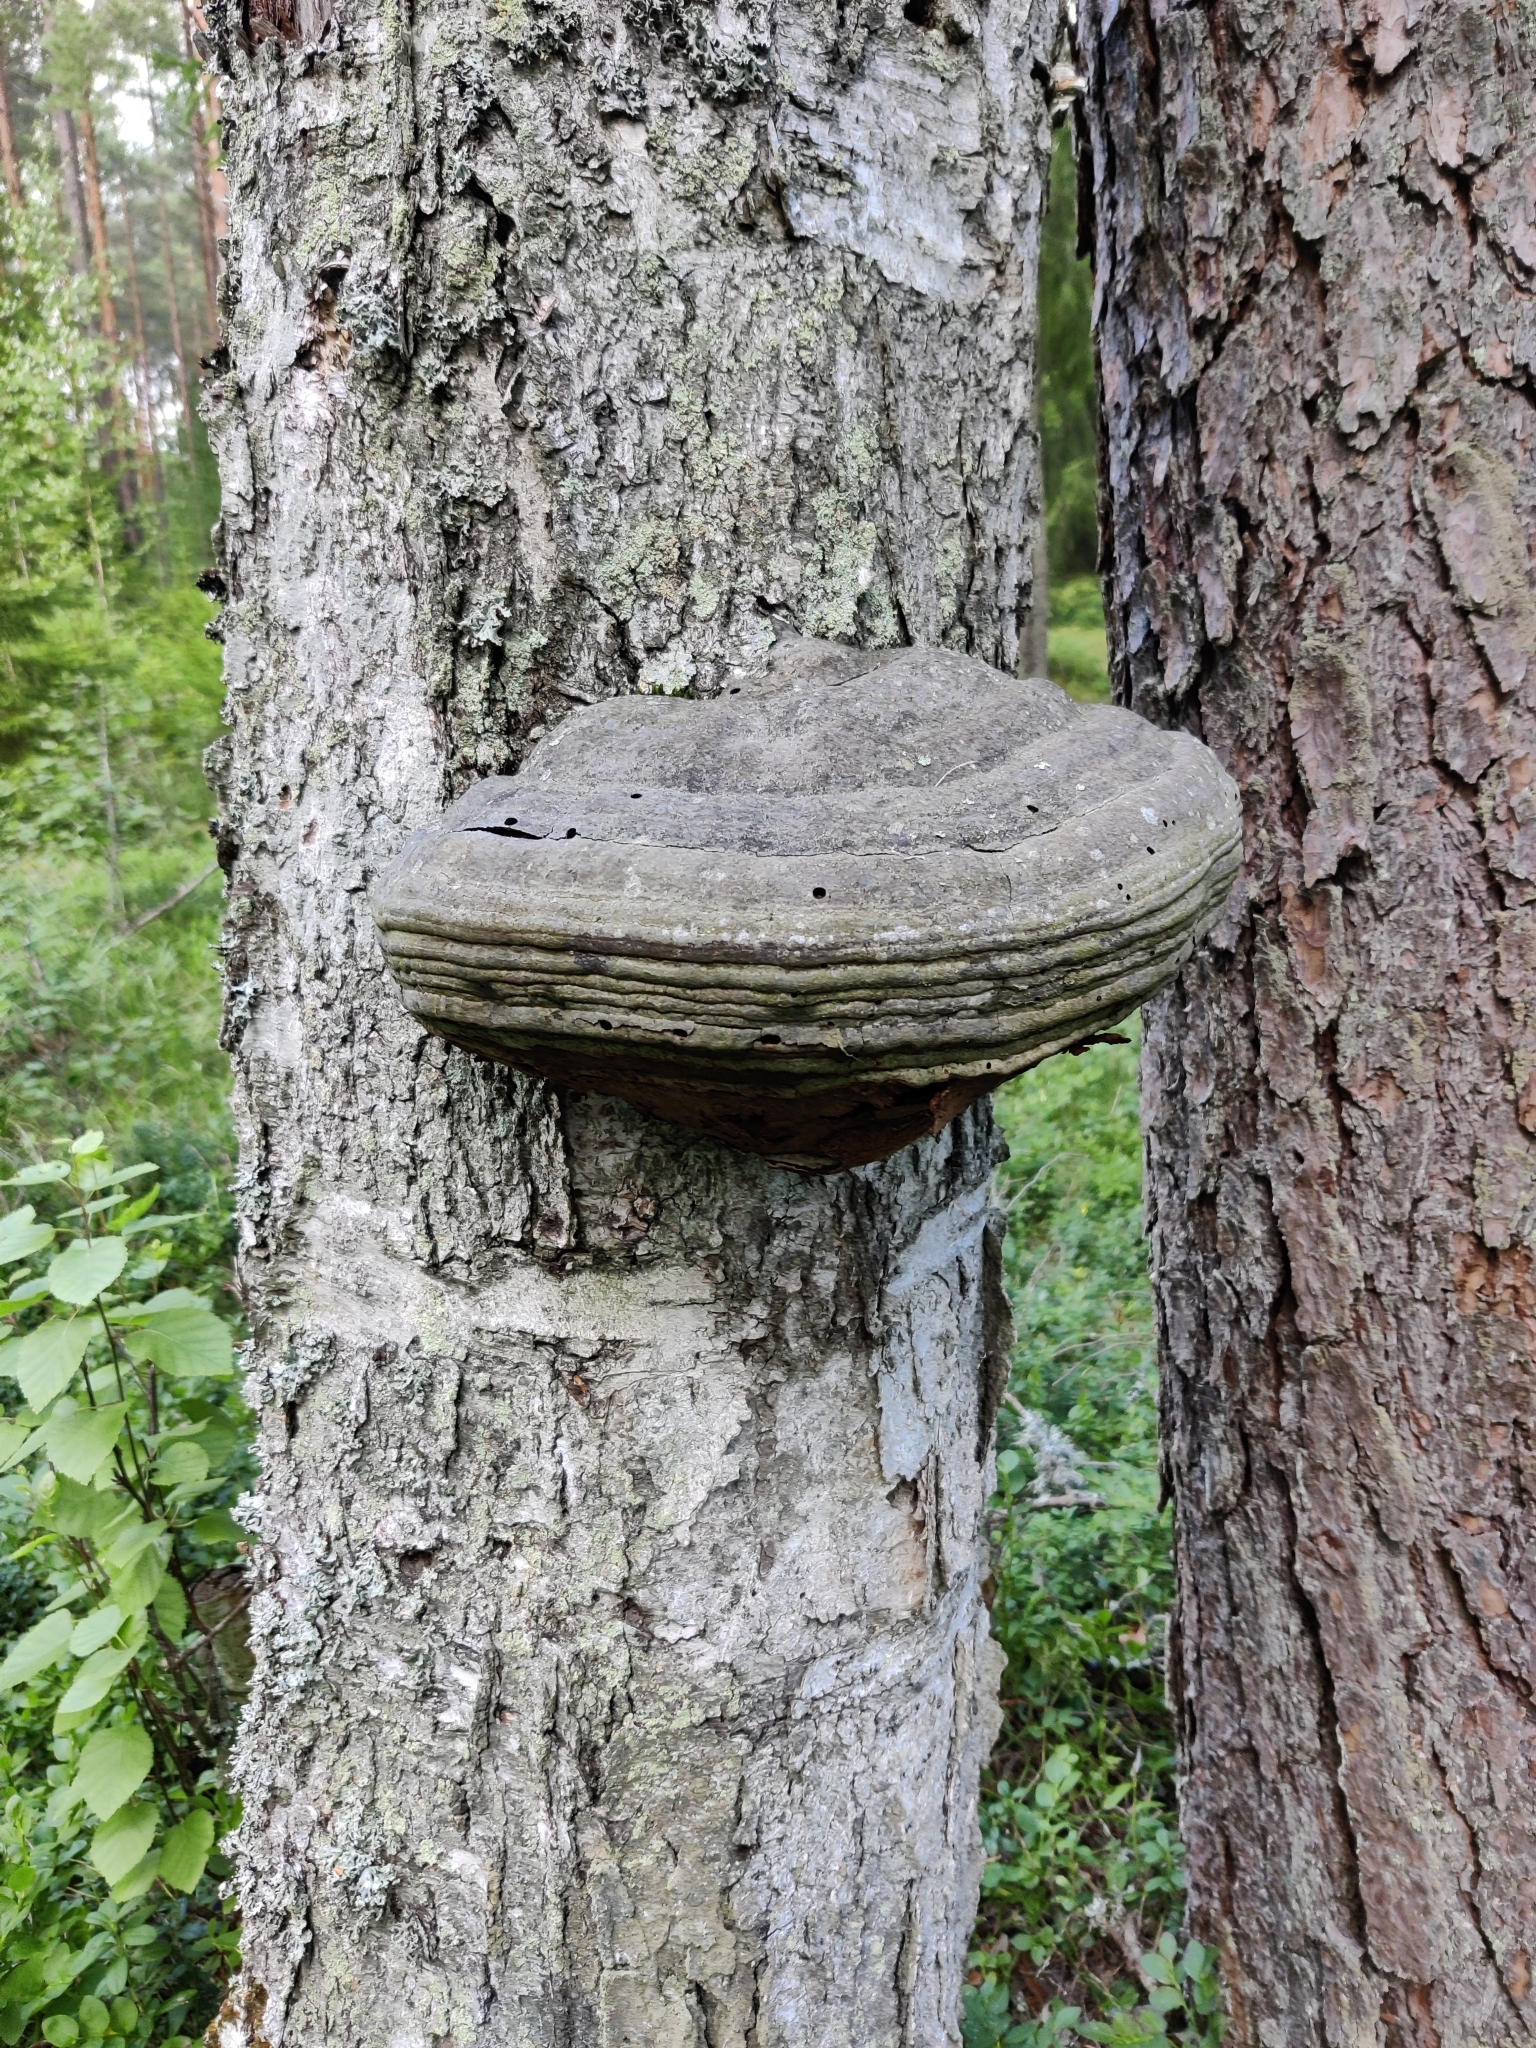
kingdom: Fungi
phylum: Basidiomycota
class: Agaricomycetes
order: Polyporales
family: Polyporaceae
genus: Fomes
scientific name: Fomes fomentarius
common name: Hoof fungus
